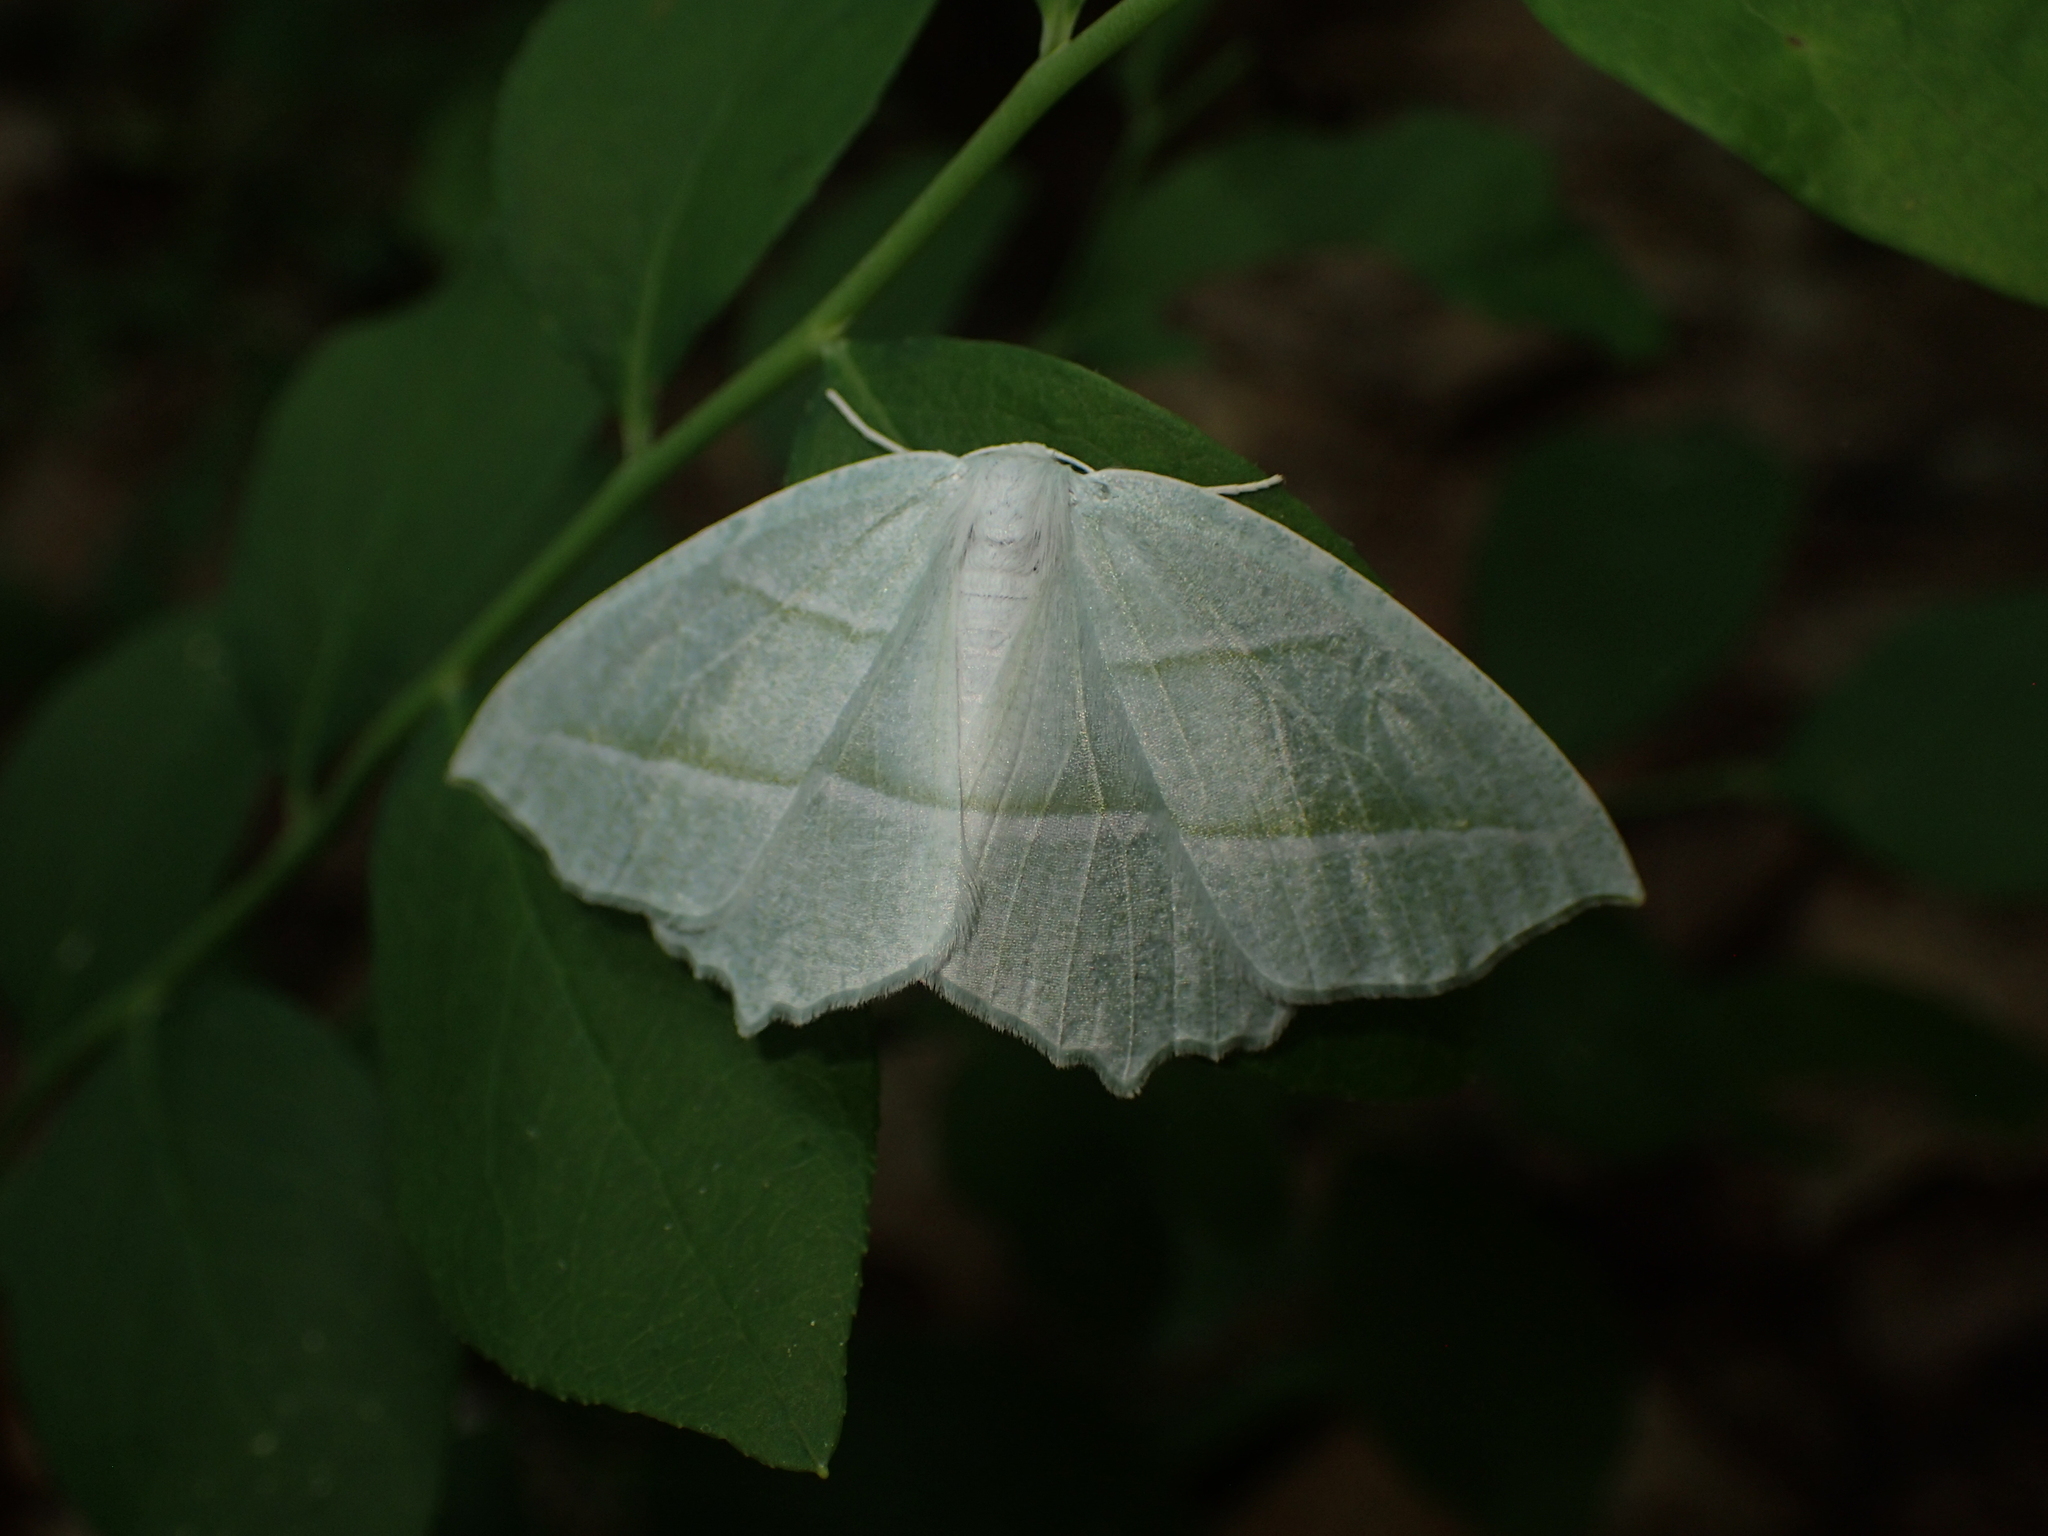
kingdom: Animalia
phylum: Arthropoda
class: Insecta
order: Lepidoptera
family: Geometridae
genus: Campaea
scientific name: Campaea perlata
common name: Fringed looper
